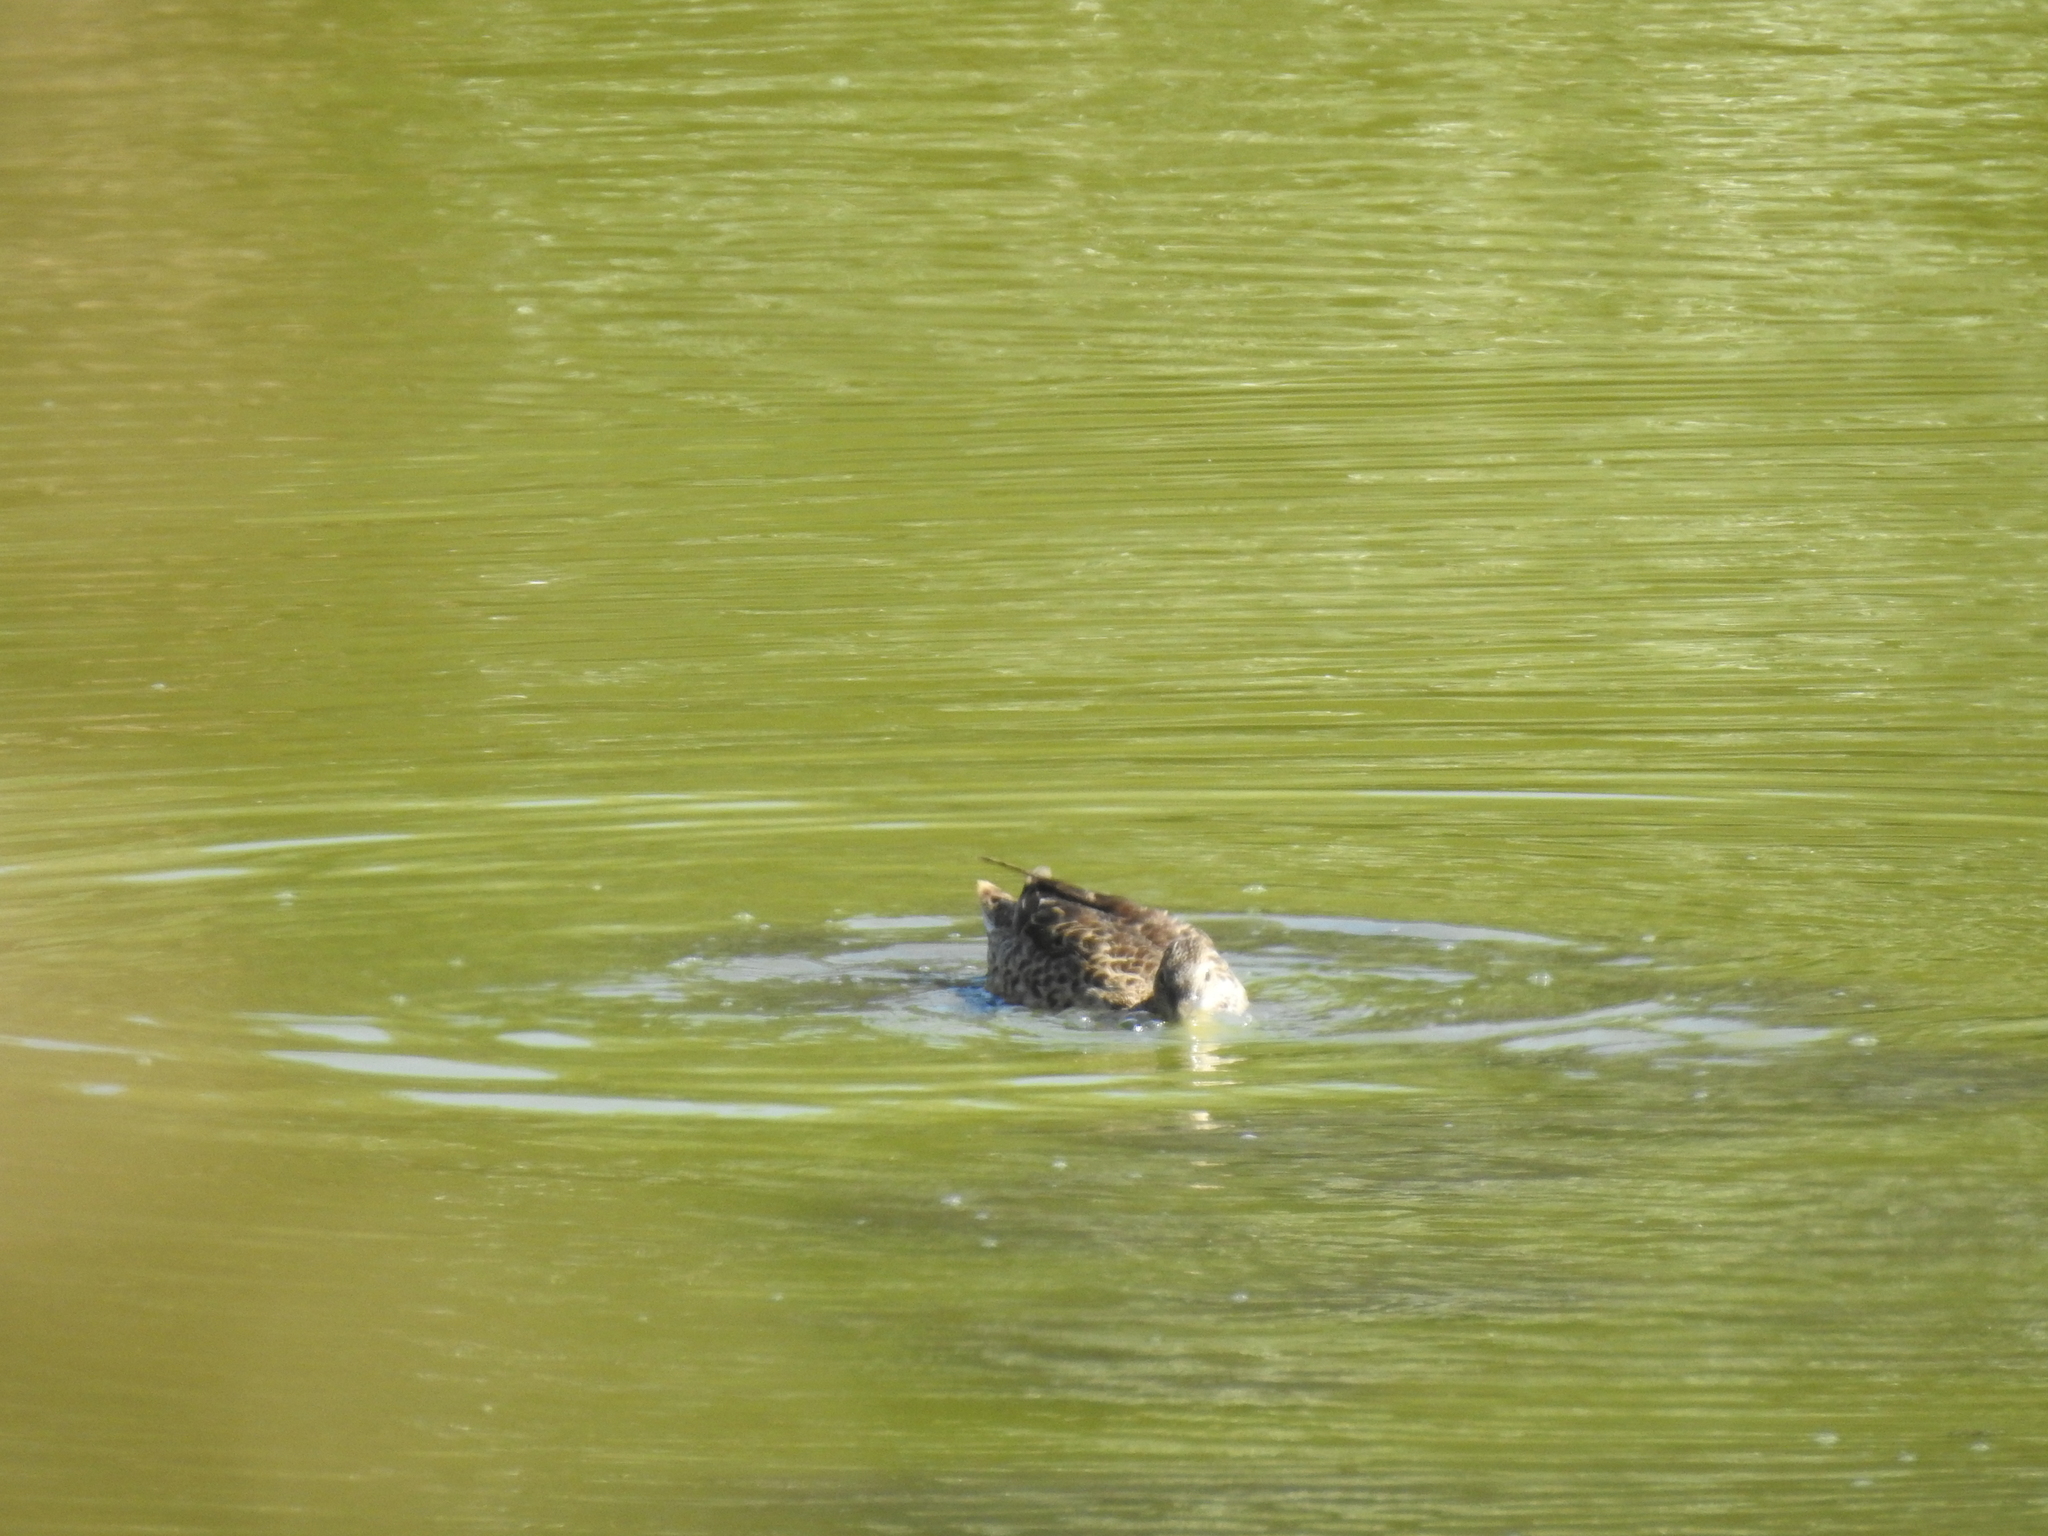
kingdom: Animalia
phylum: Chordata
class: Aves
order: Anseriformes
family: Anatidae
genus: Anas
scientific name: Anas crecca
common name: Eurasian teal
